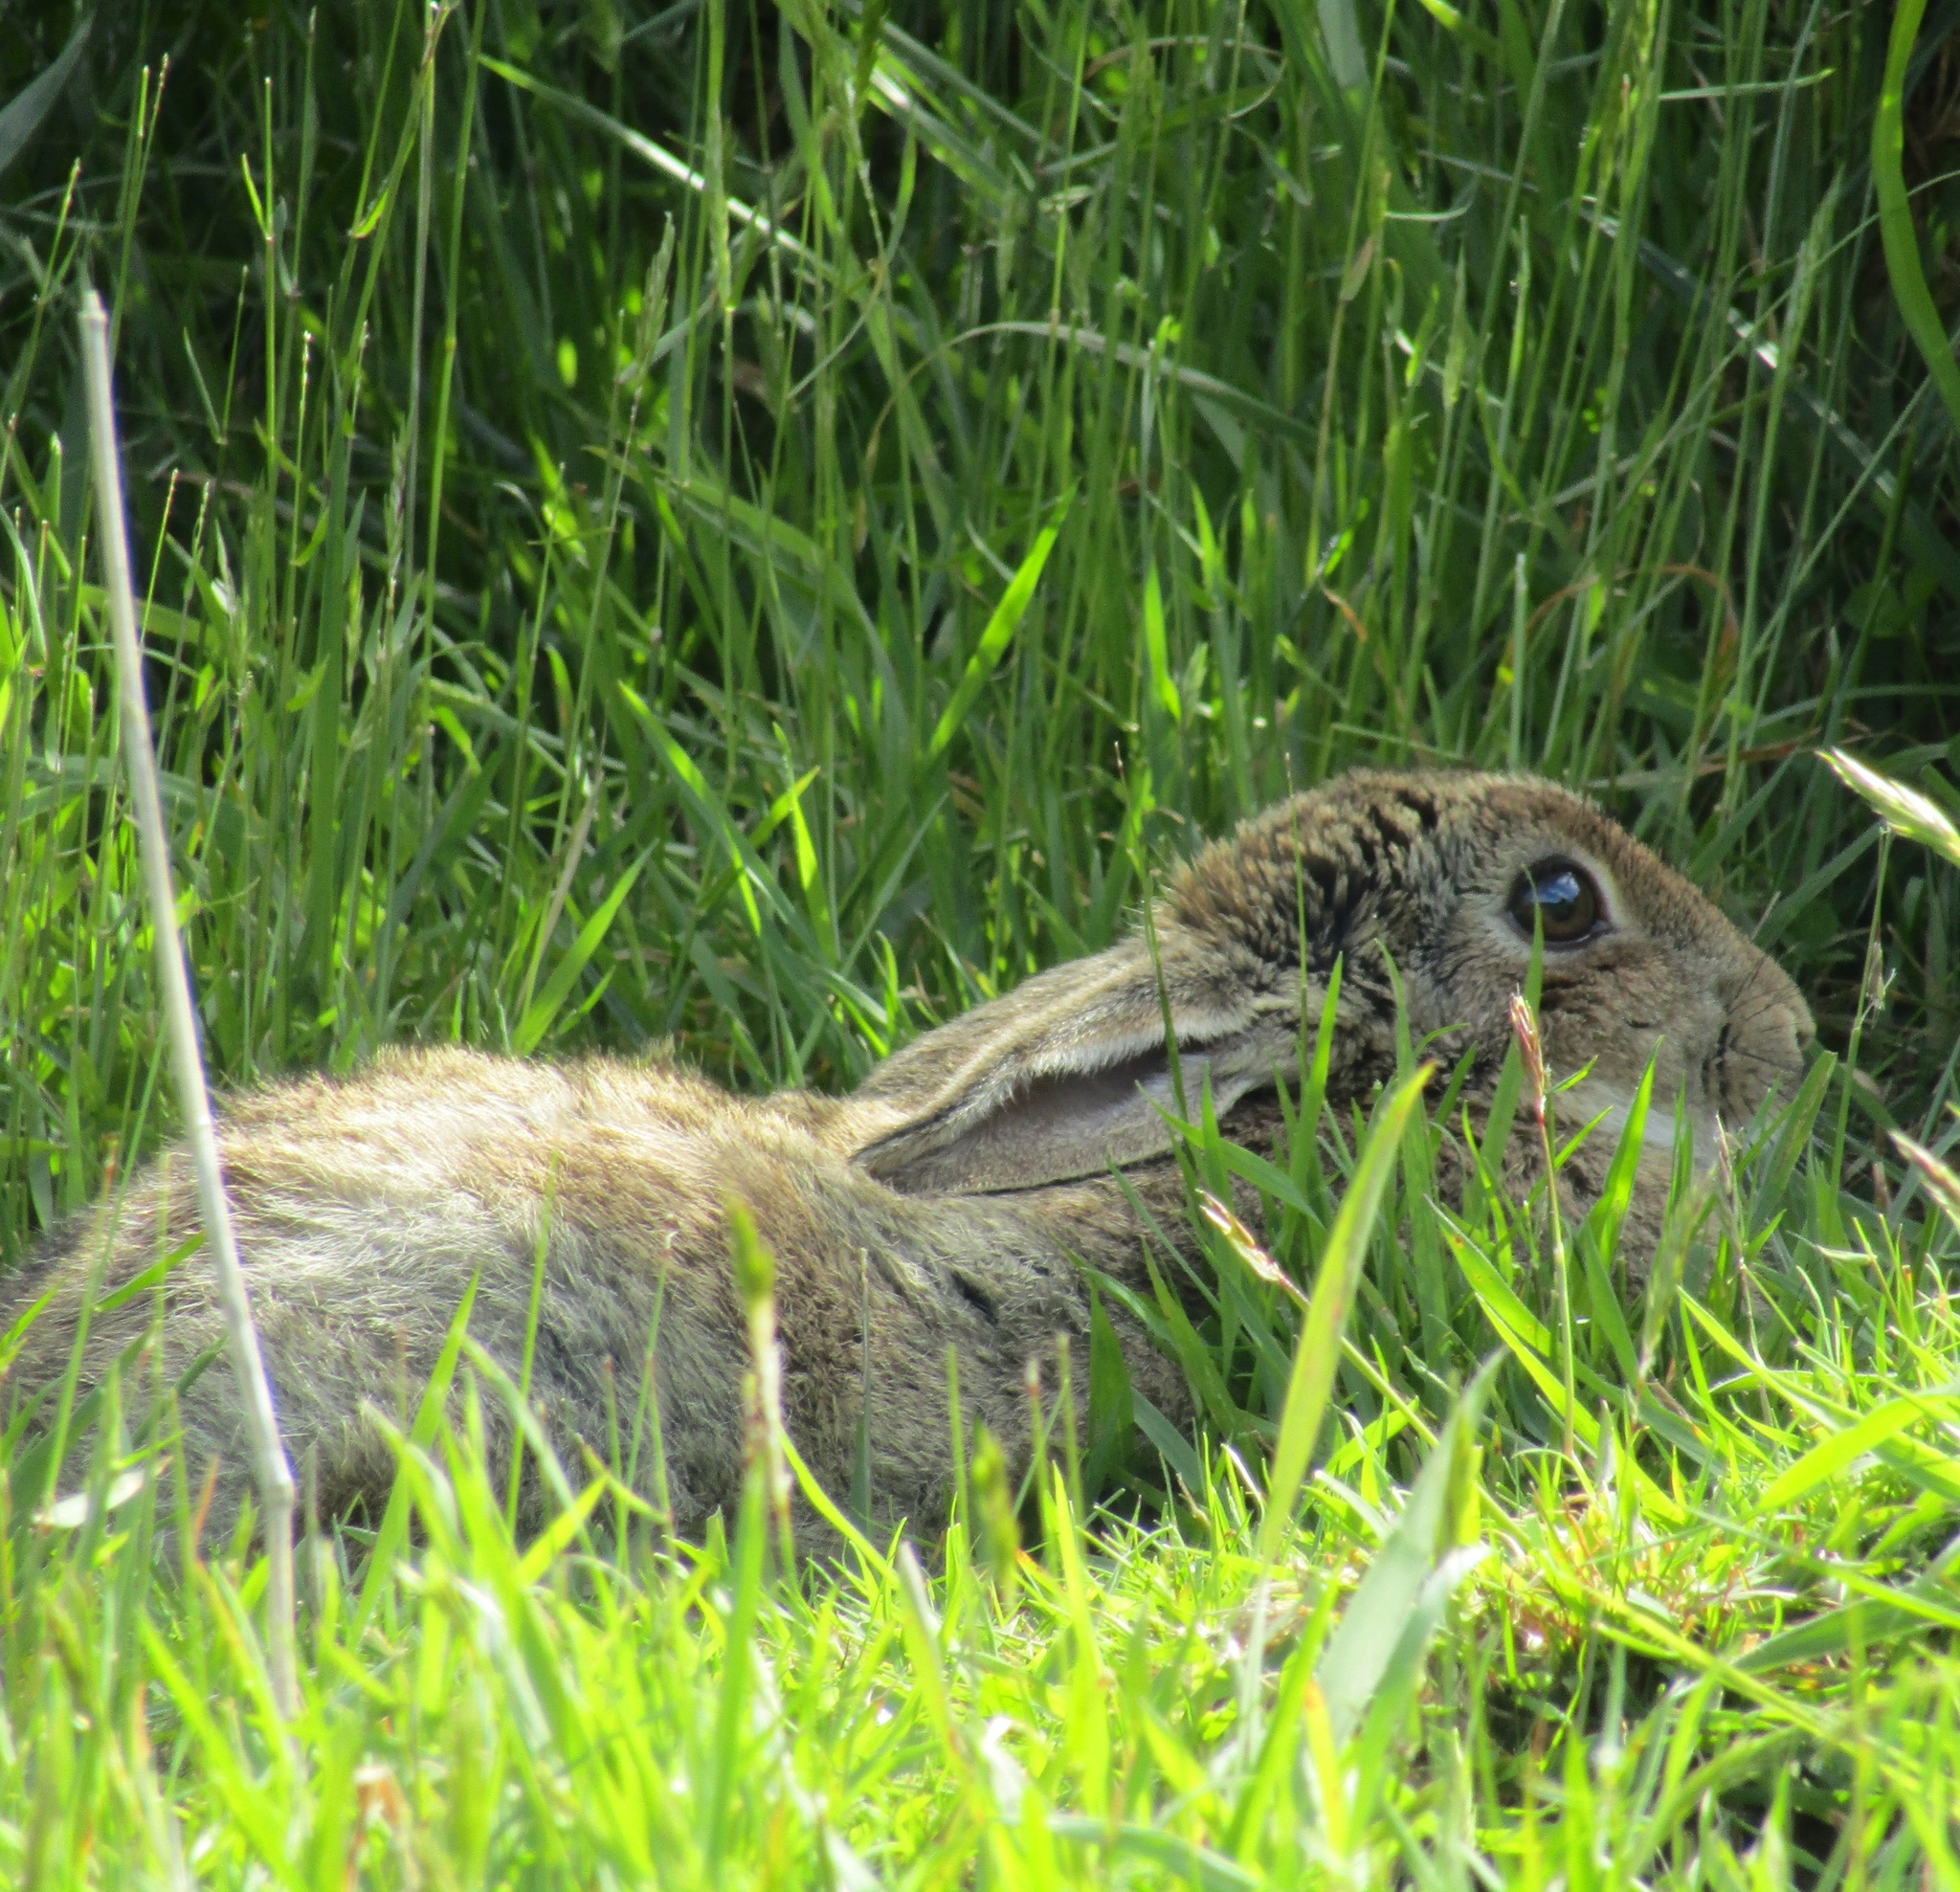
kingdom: Animalia
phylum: Chordata
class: Mammalia
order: Lagomorpha
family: Leporidae
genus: Oryctolagus
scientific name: Oryctolagus cuniculus
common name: European rabbit
